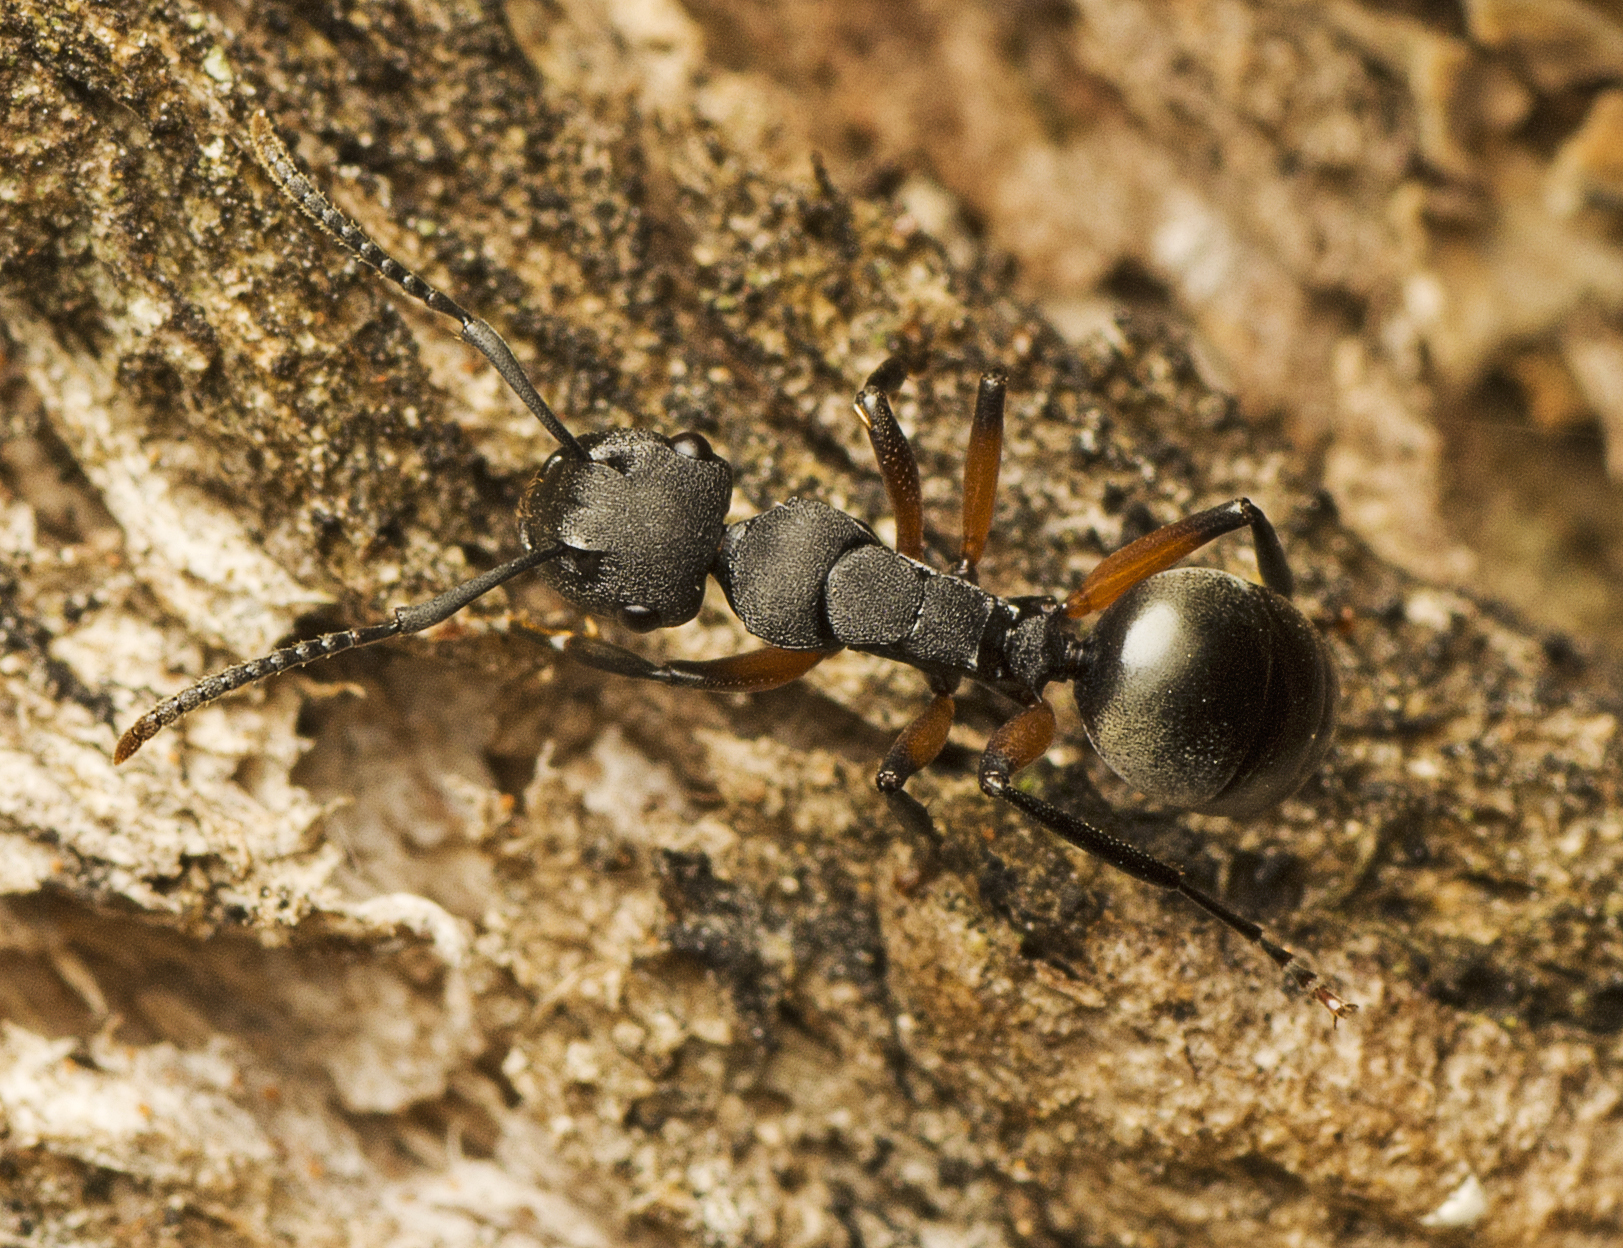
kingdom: Animalia
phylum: Arthropoda
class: Insecta
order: Hymenoptera
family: Formicidae
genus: Polyrhachis
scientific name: Polyrhachis femorata
